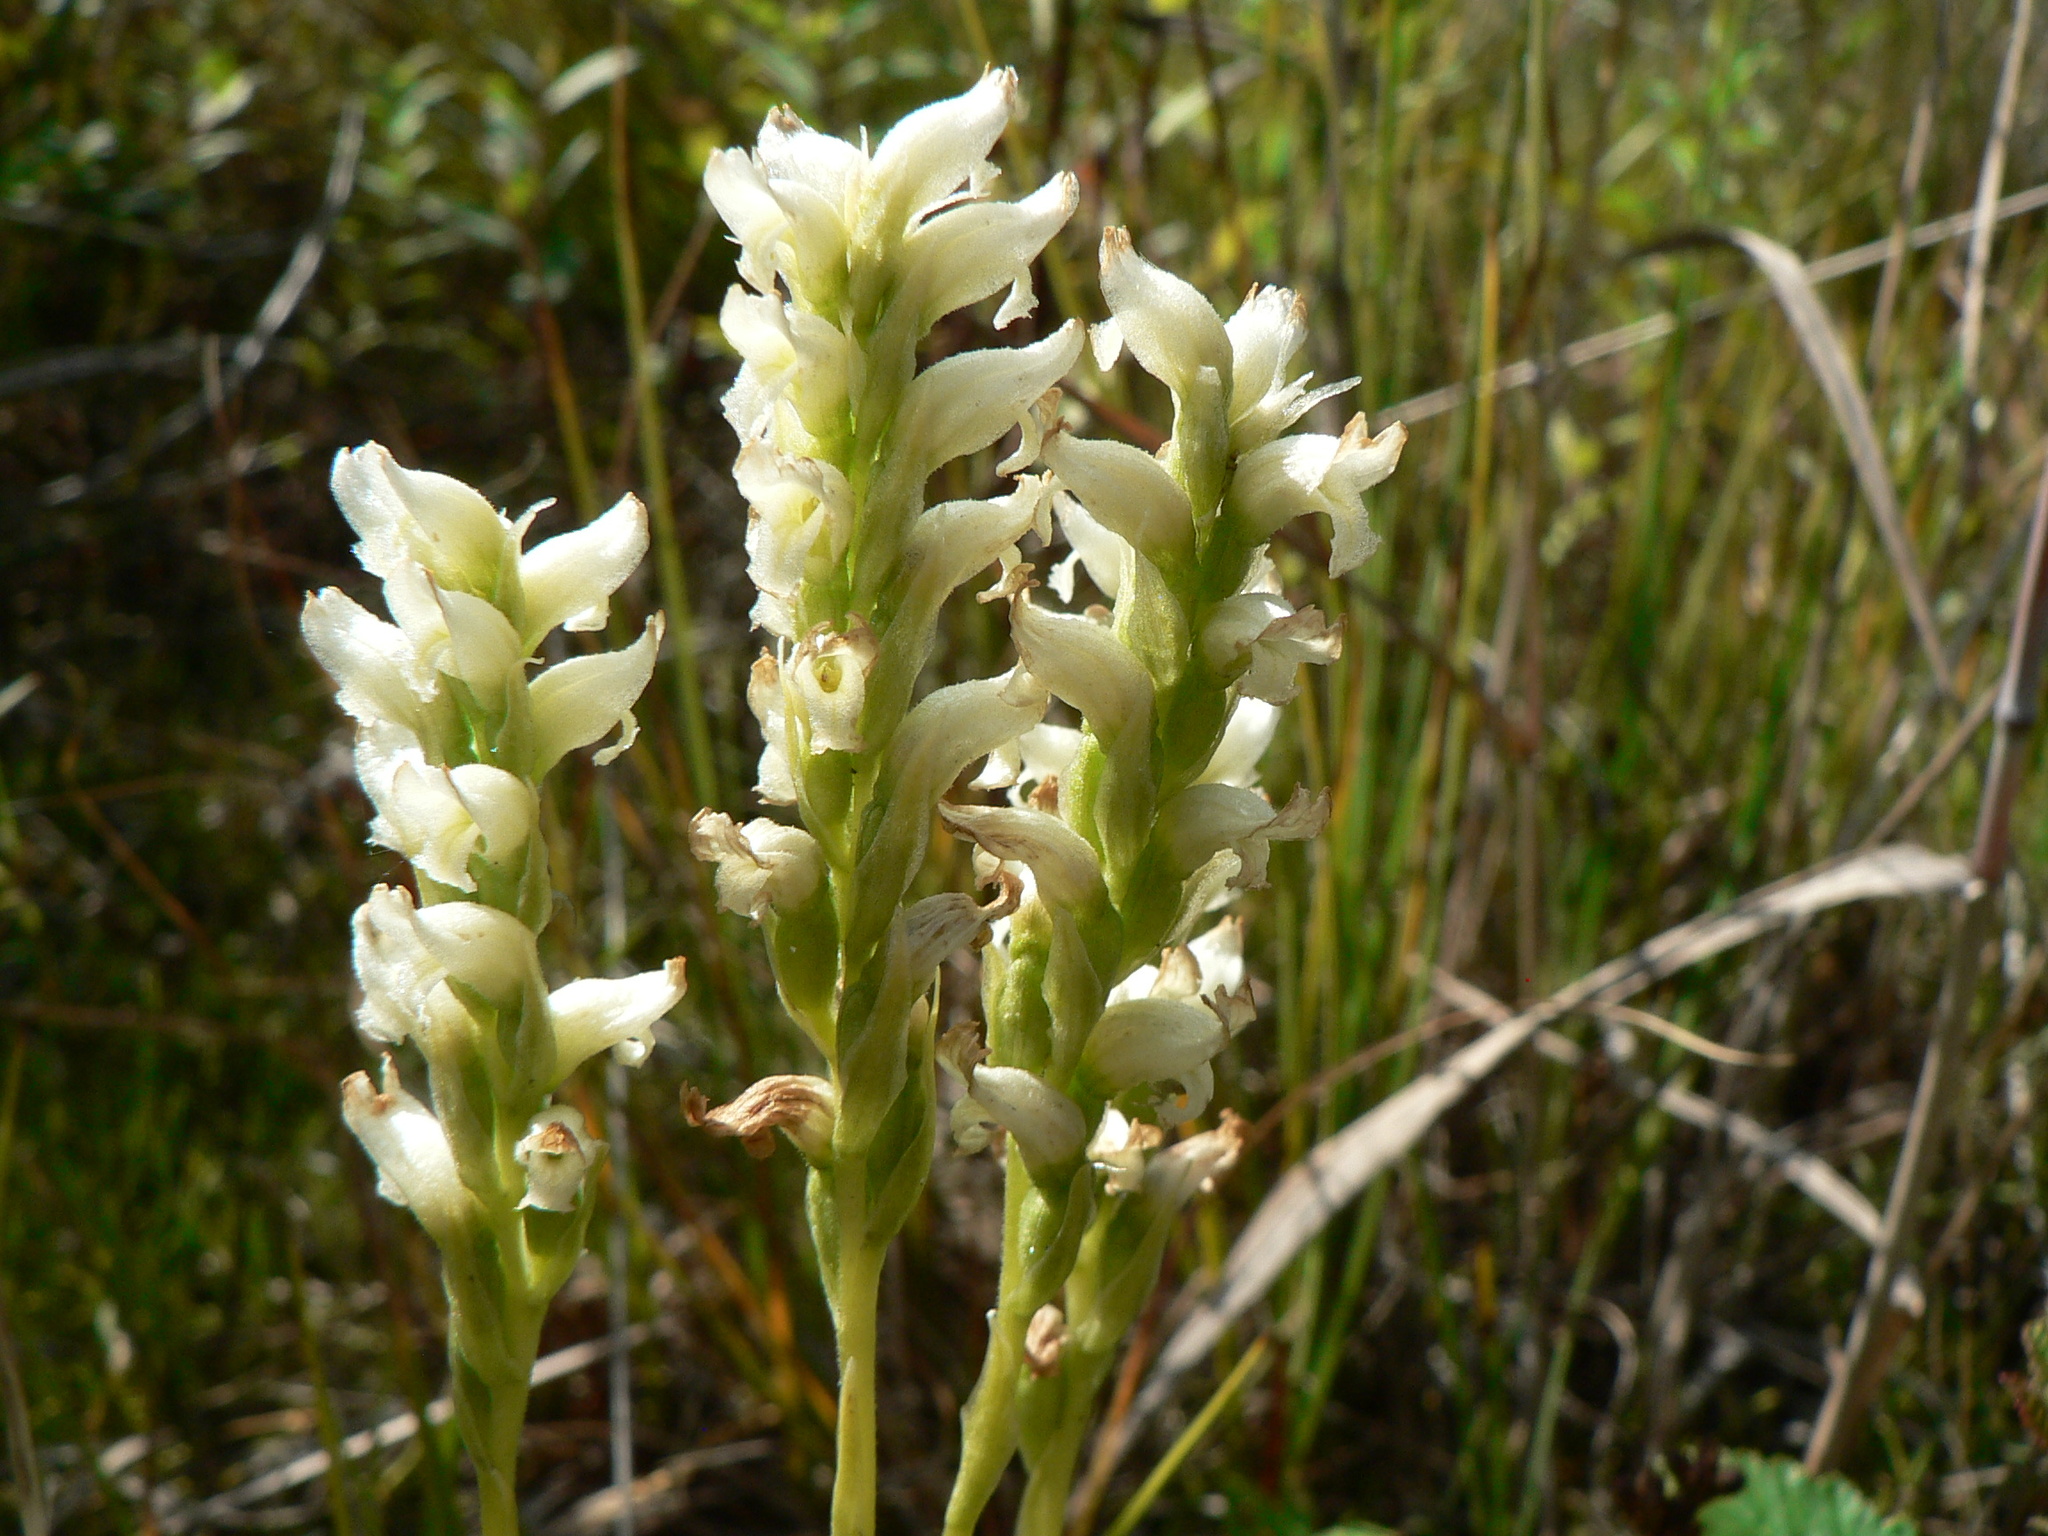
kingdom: Plantae
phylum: Tracheophyta
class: Liliopsida
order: Asparagales
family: Orchidaceae
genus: Spiranthes
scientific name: Spiranthes romanzoffiana
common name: Irish lady's-tresses
